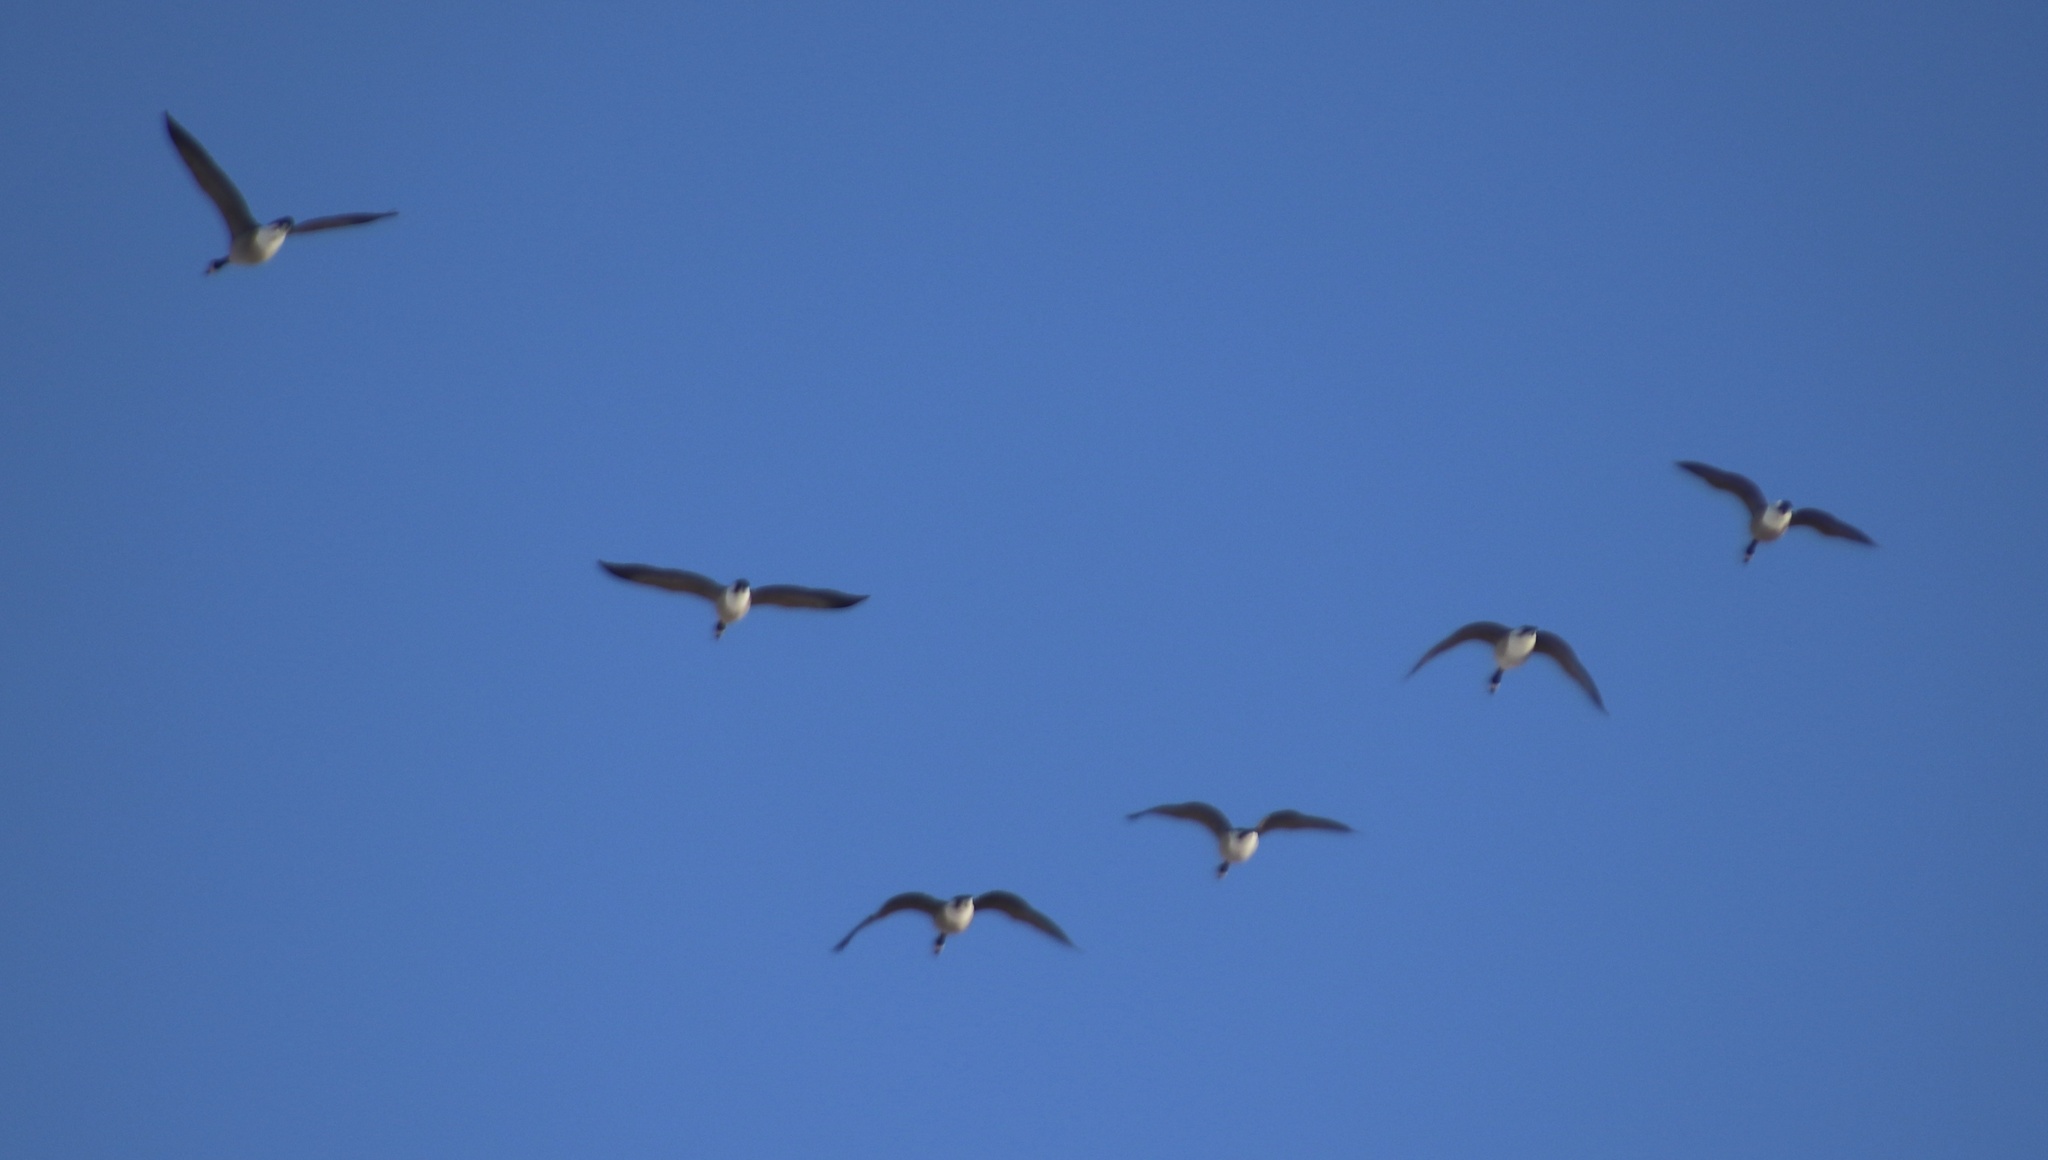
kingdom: Animalia
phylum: Chordata
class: Aves
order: Anseriformes
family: Anatidae
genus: Branta
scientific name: Branta canadensis
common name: Canada goose
